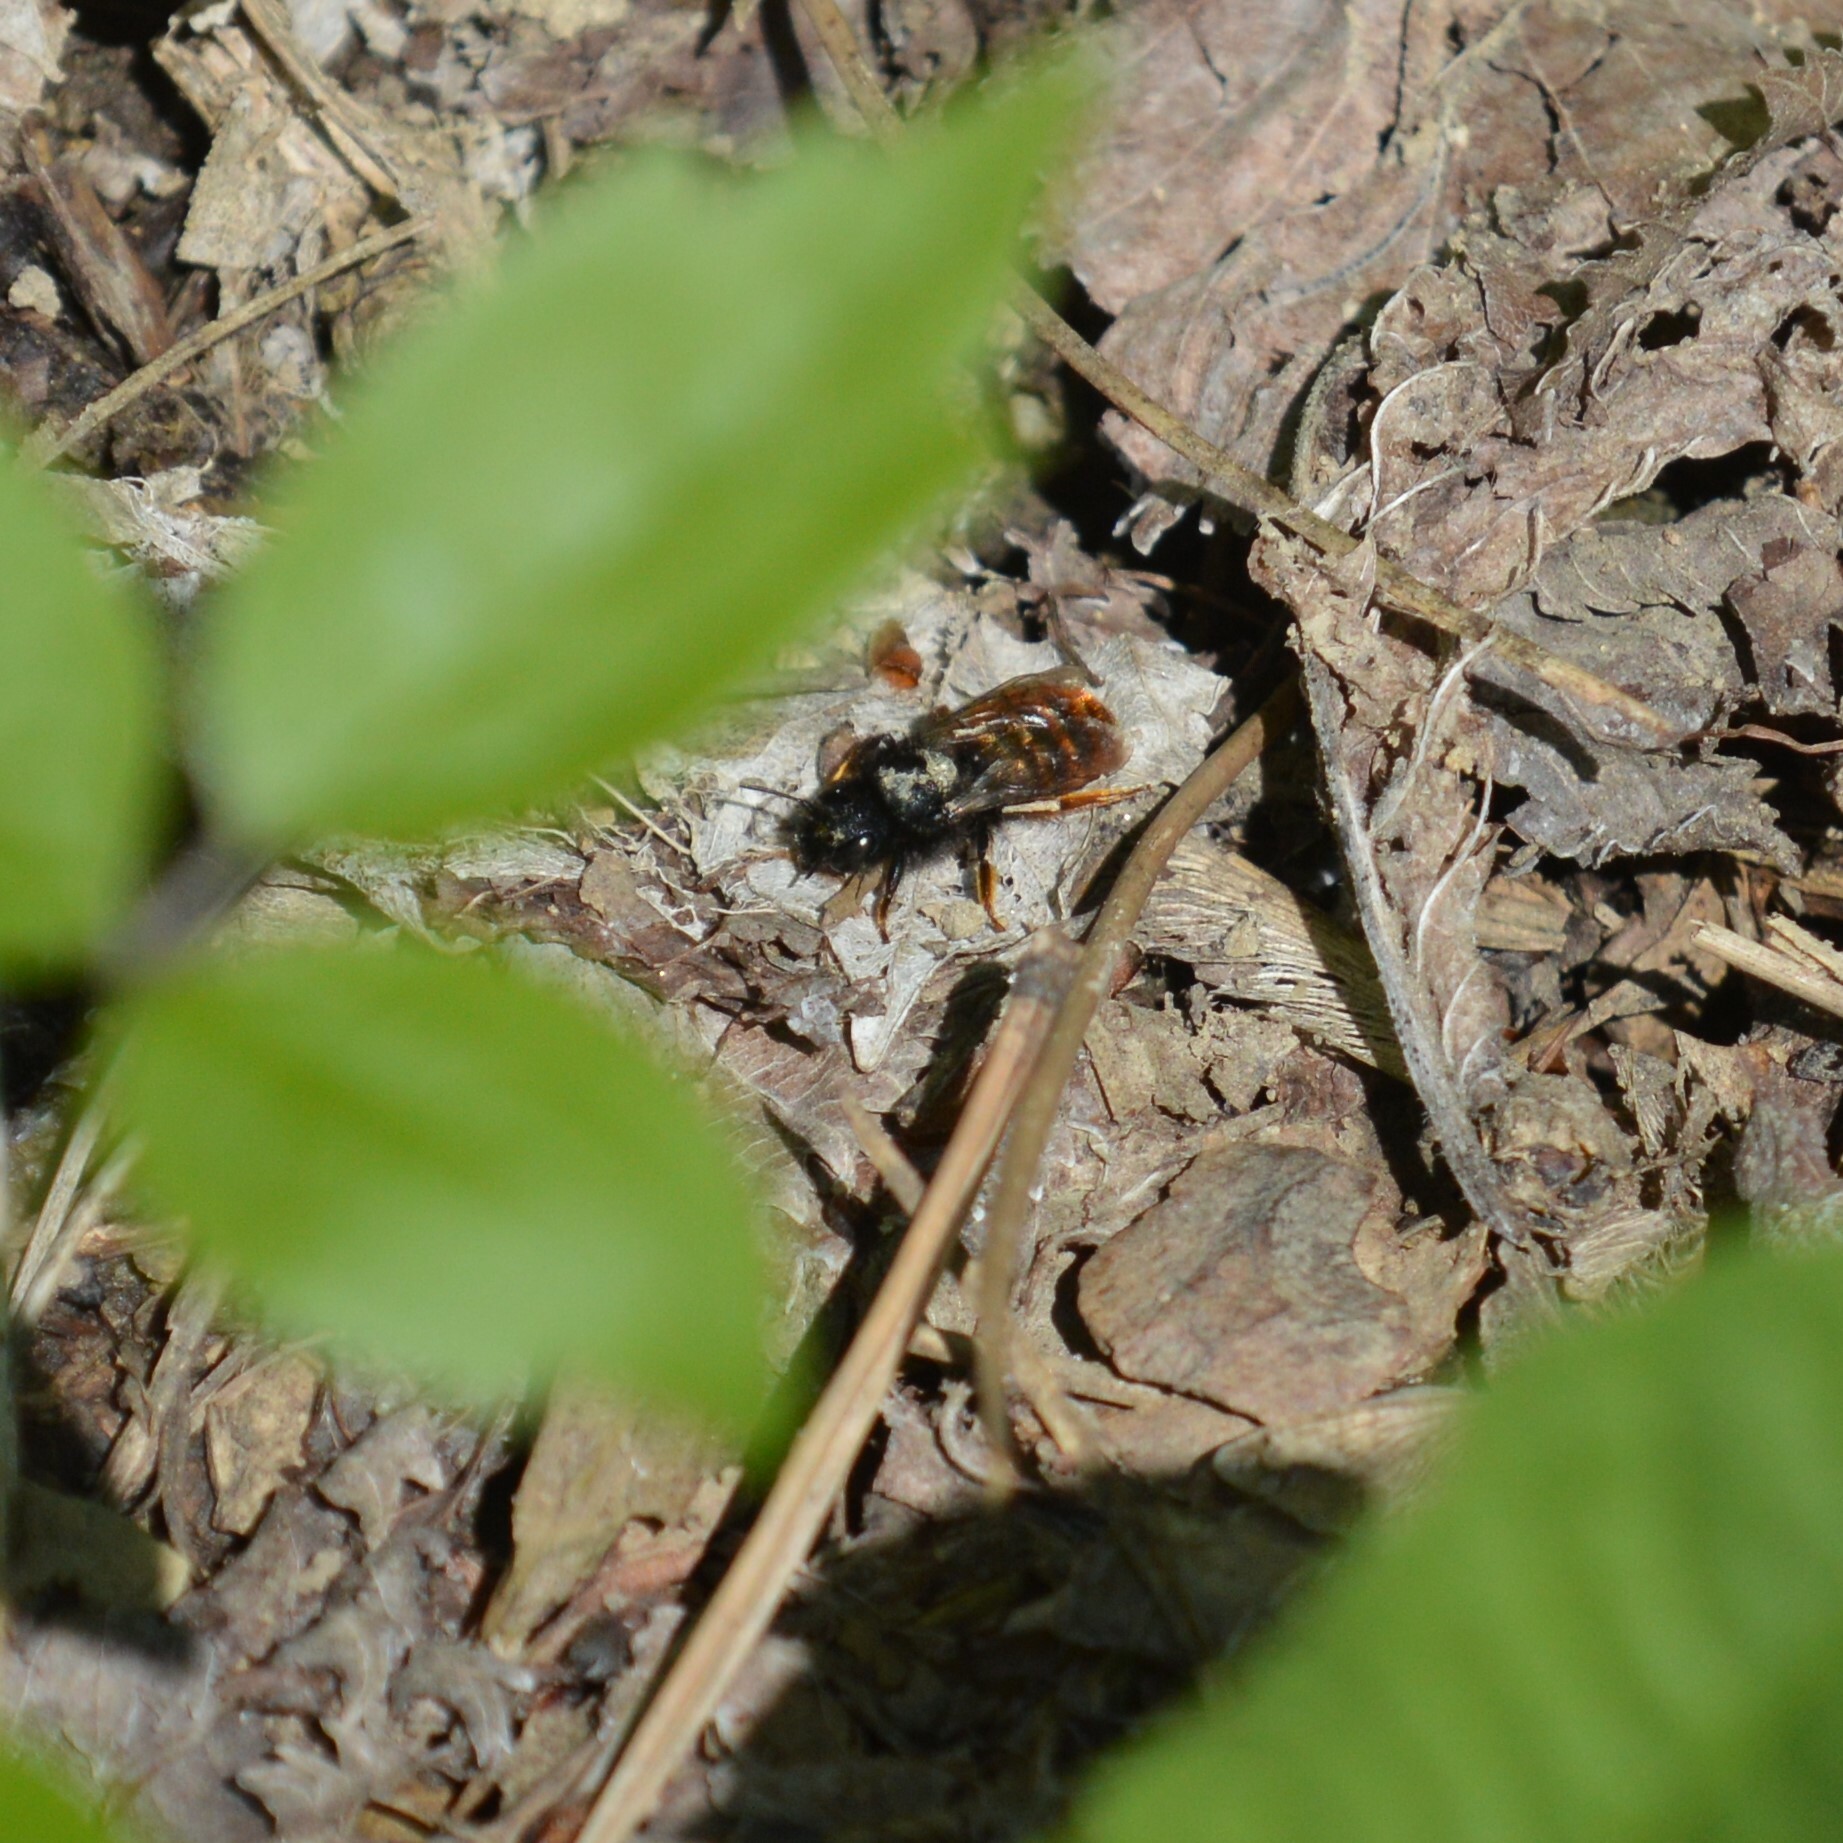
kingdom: Animalia
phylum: Arthropoda
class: Insecta
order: Hymenoptera
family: Megachilidae
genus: Osmia
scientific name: Osmia bicolor
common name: Red-tailed mason bee
